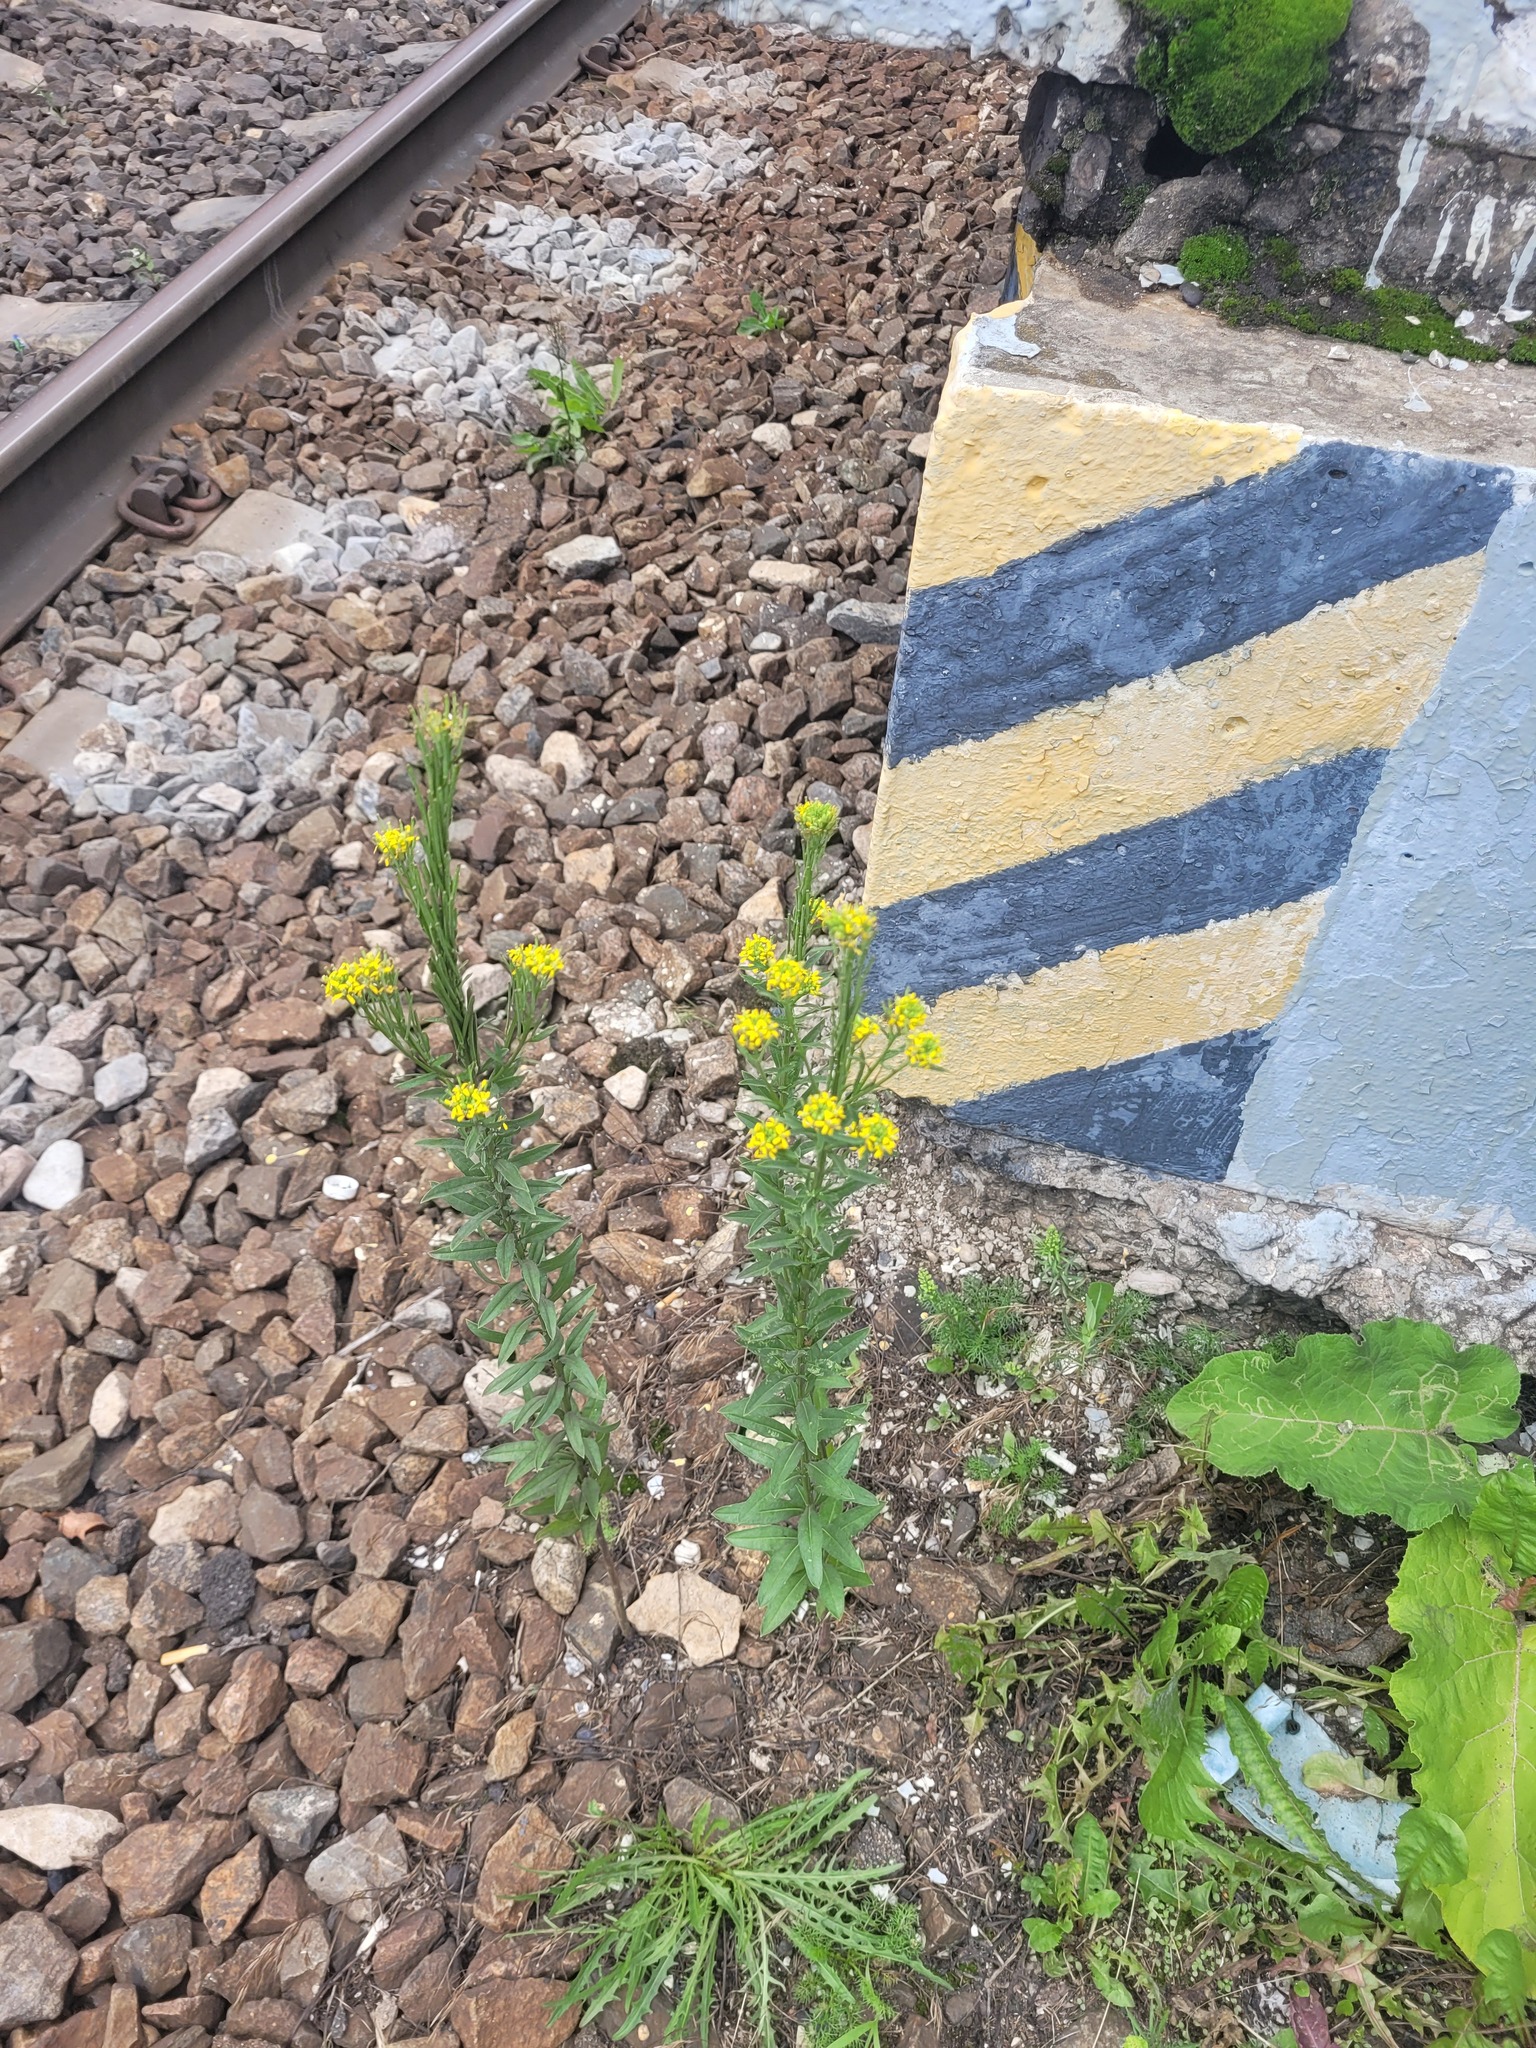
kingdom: Plantae
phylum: Tracheophyta
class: Magnoliopsida
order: Brassicales
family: Brassicaceae
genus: Erysimum
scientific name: Erysimum hieraciifolium
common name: European wallflower
